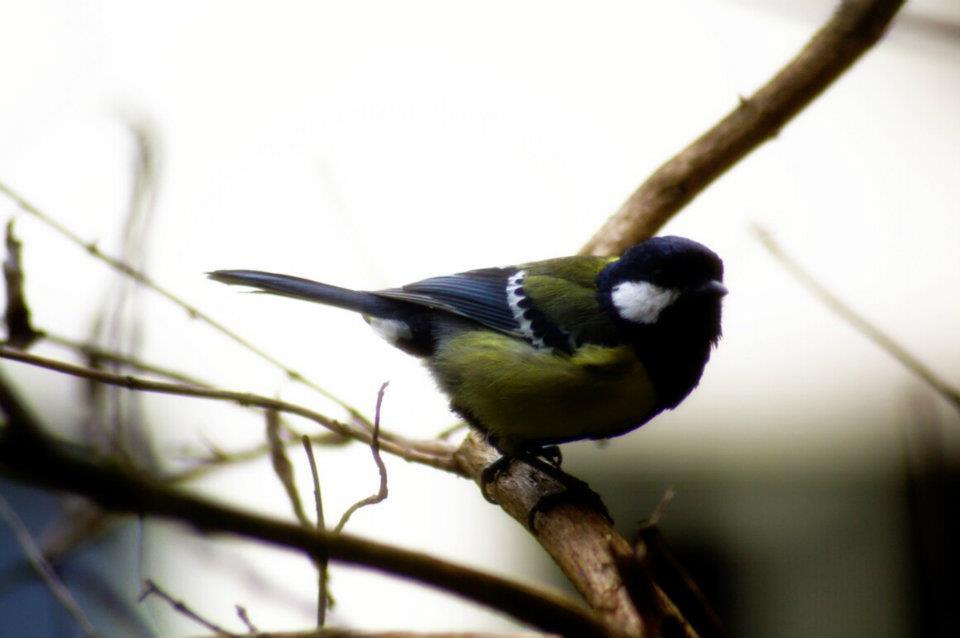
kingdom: Animalia
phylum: Chordata
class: Aves
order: Passeriformes
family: Paridae
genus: Parus
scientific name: Parus monticolus
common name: Green-backed tit
